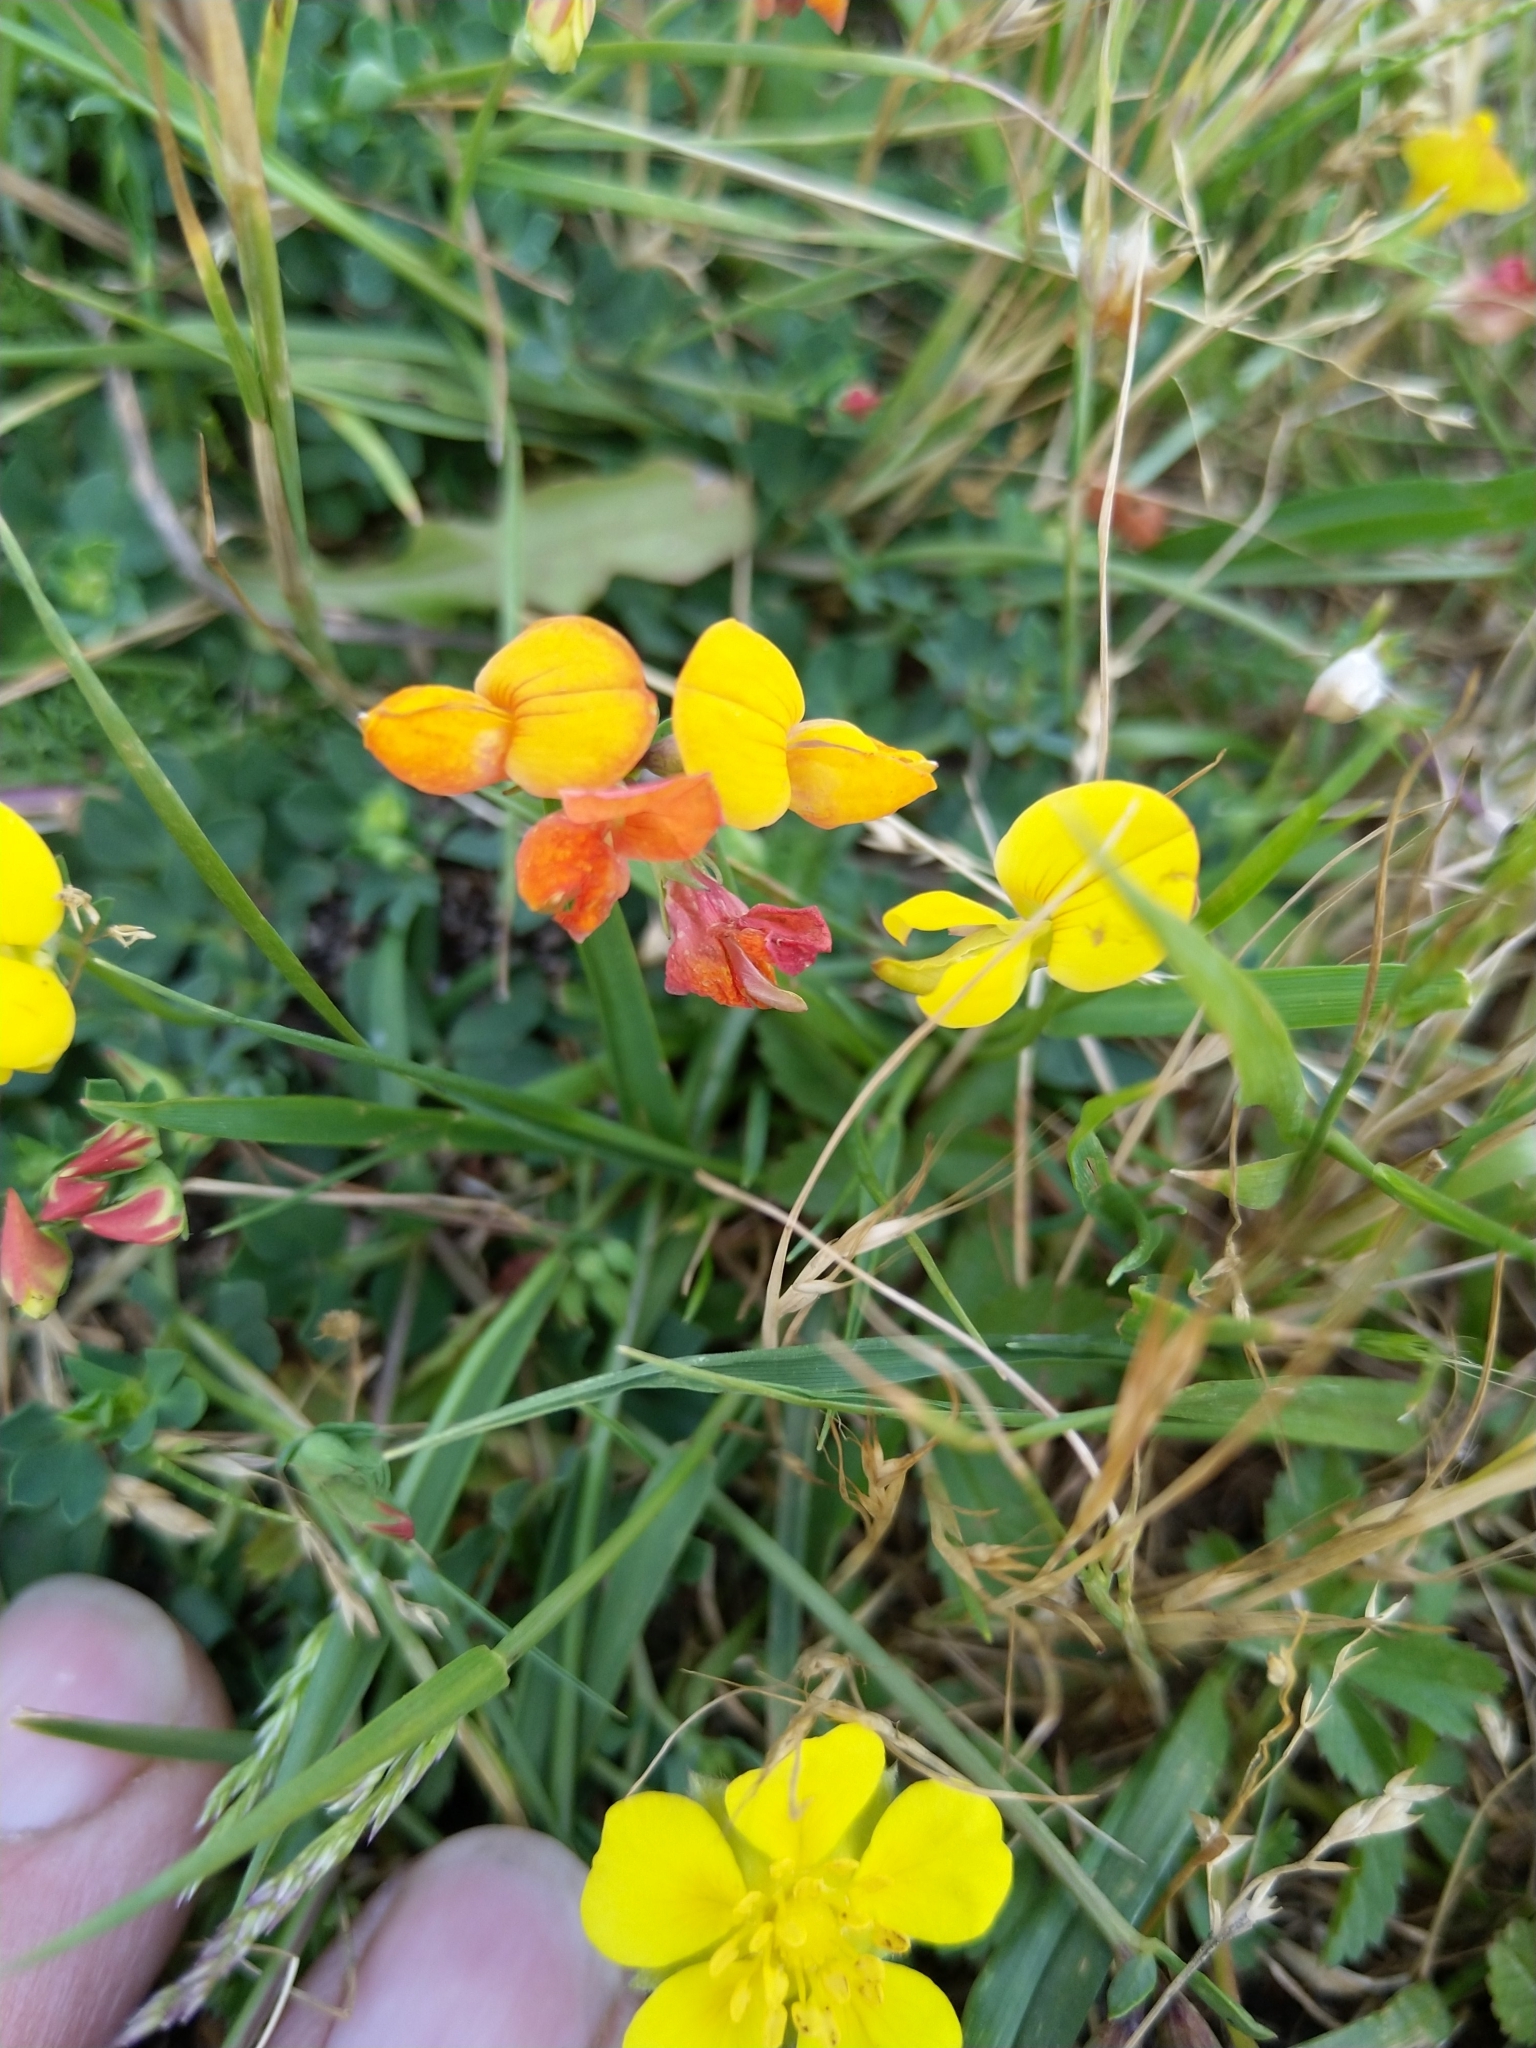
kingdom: Plantae
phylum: Tracheophyta
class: Magnoliopsida
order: Fabales
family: Fabaceae
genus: Lotus
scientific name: Lotus corniculatus
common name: Common bird's-foot-trefoil
